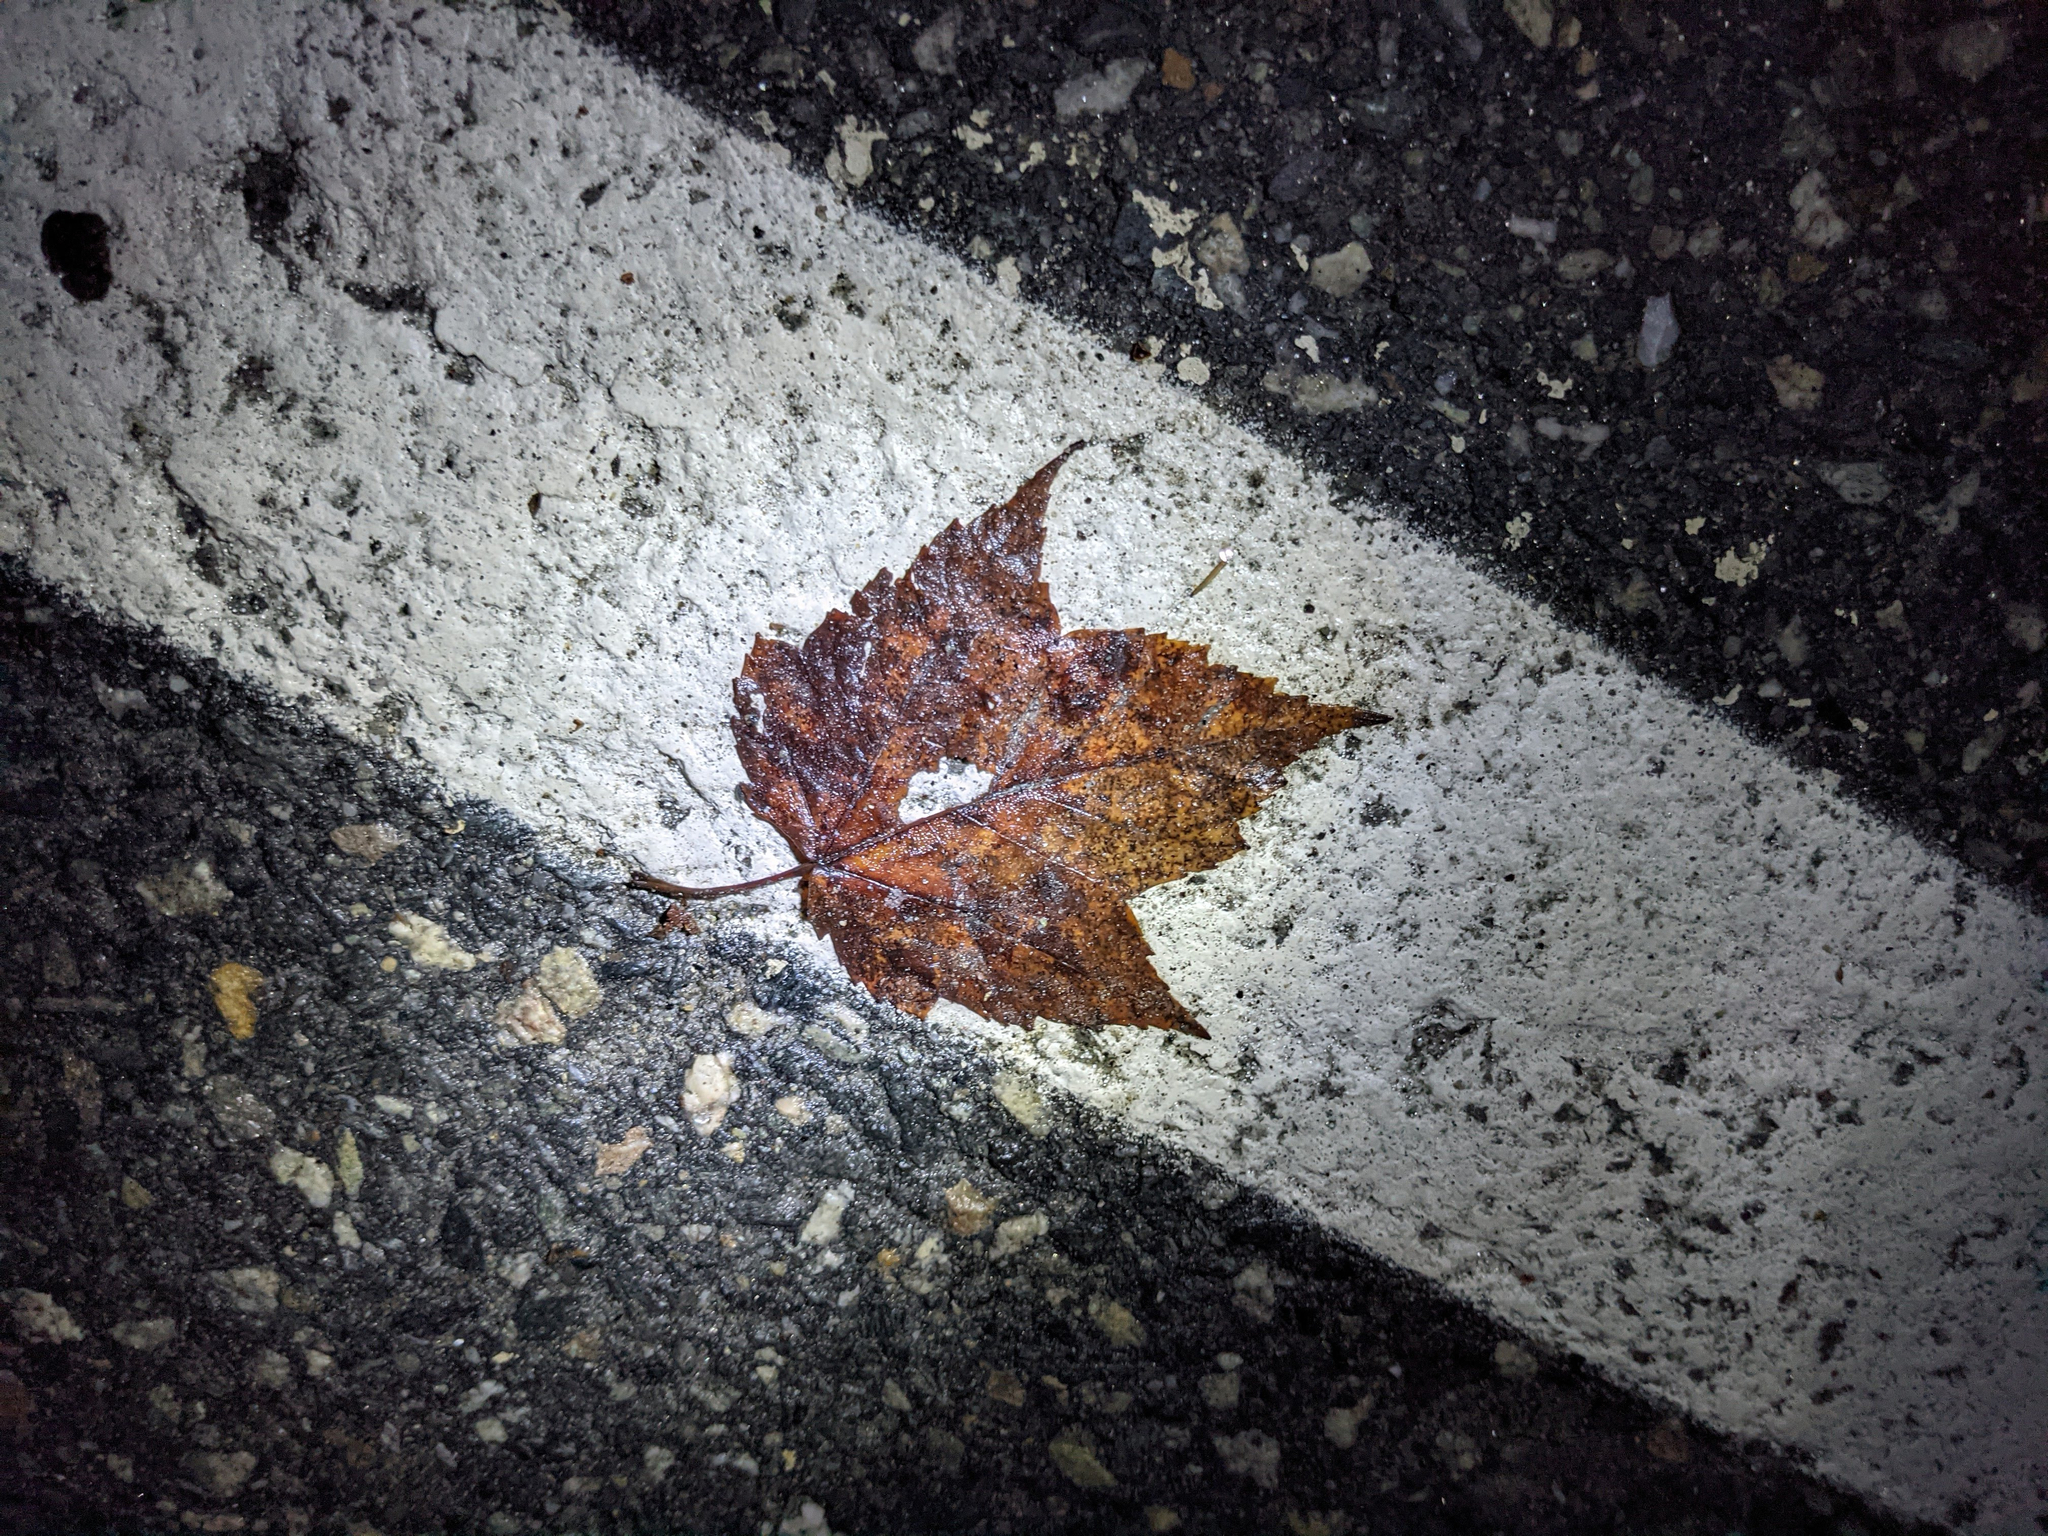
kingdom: Plantae
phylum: Tracheophyta
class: Magnoliopsida
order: Sapindales
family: Sapindaceae
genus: Acer
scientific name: Acer rubrum
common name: Red maple
